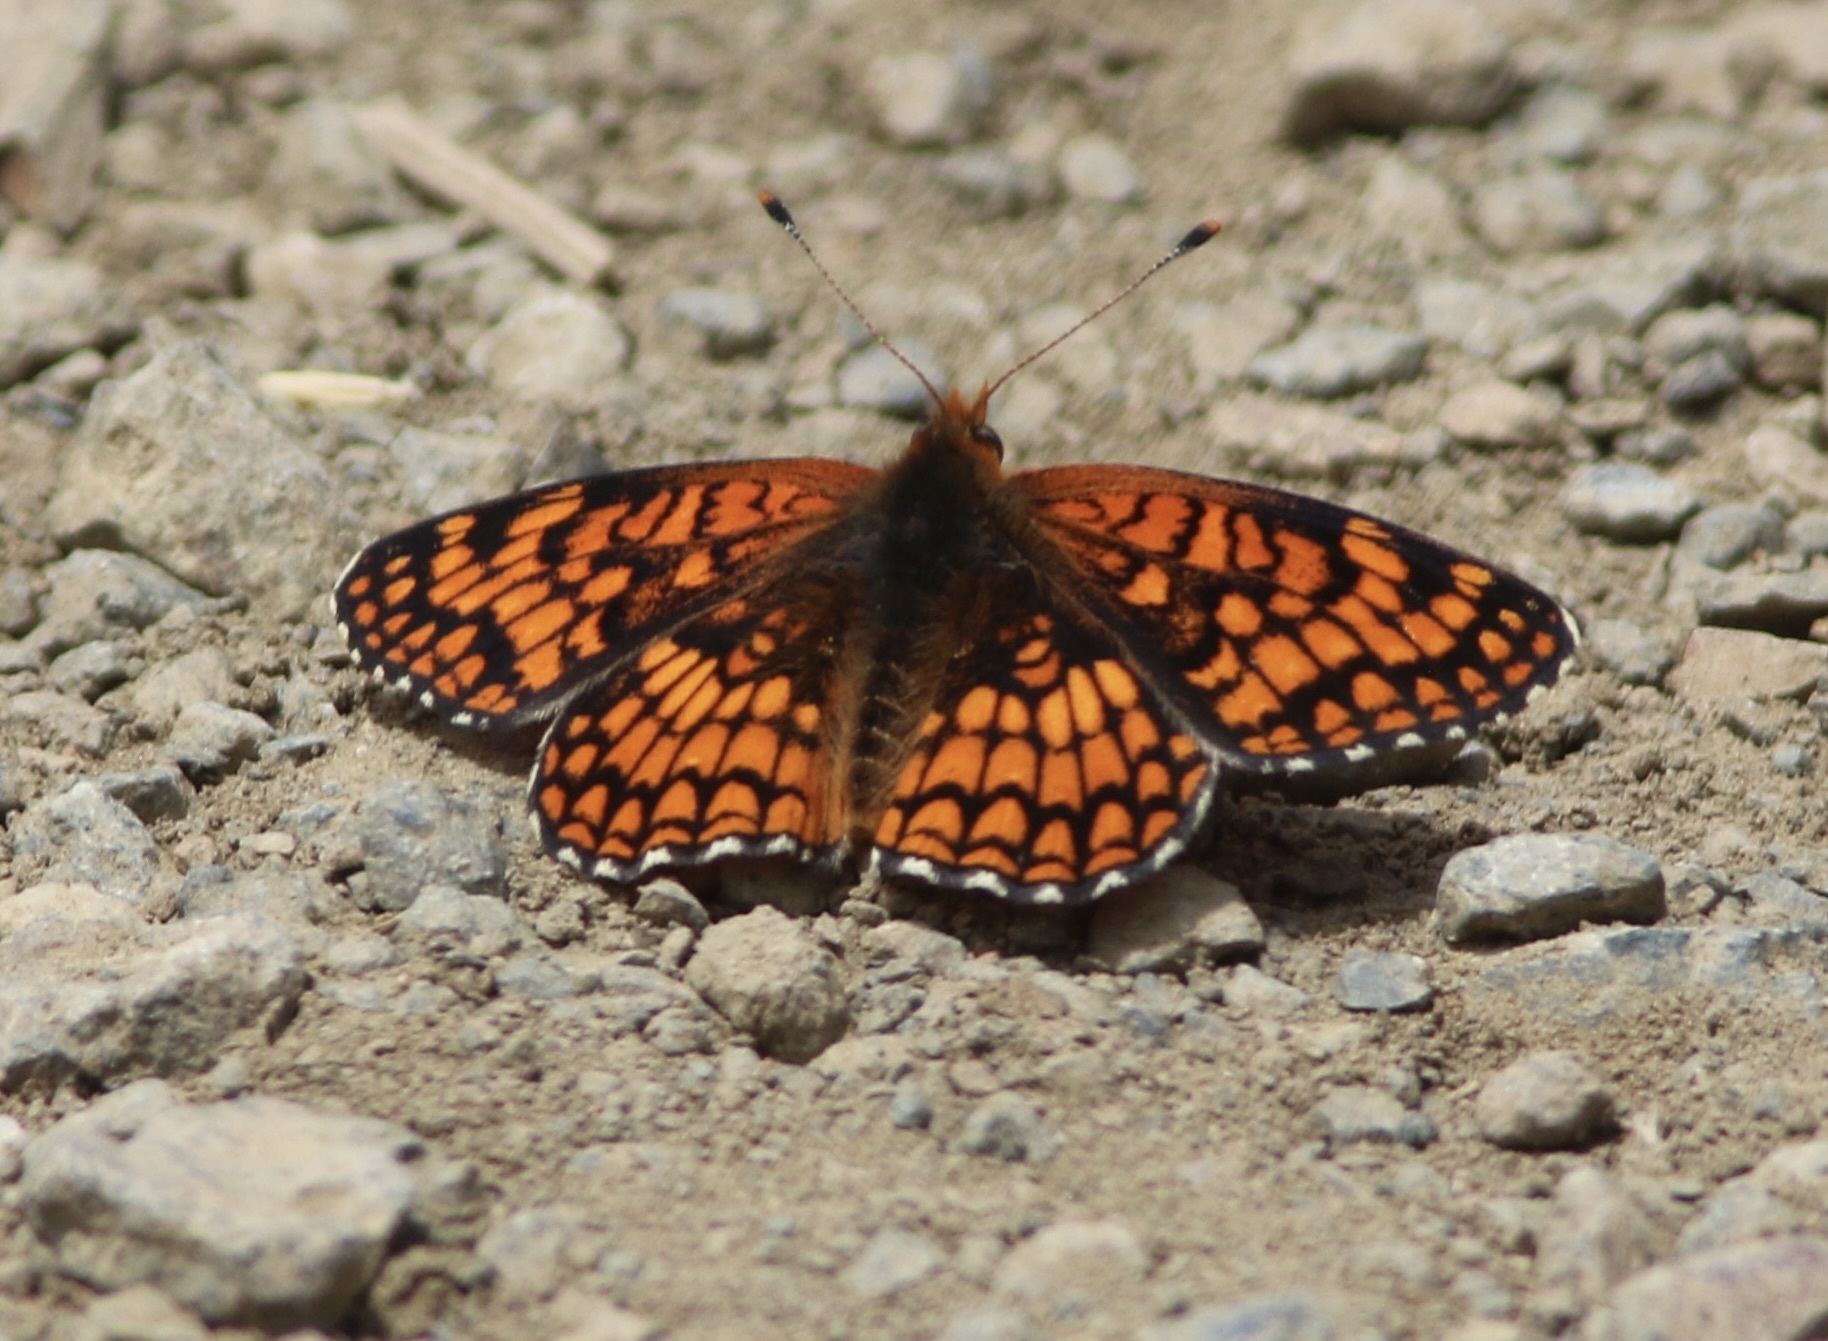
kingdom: Animalia
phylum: Arthropoda
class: Insecta
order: Lepidoptera
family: Nymphalidae
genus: Chlosyne
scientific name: Chlosyne palla
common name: Northern checkerspot
